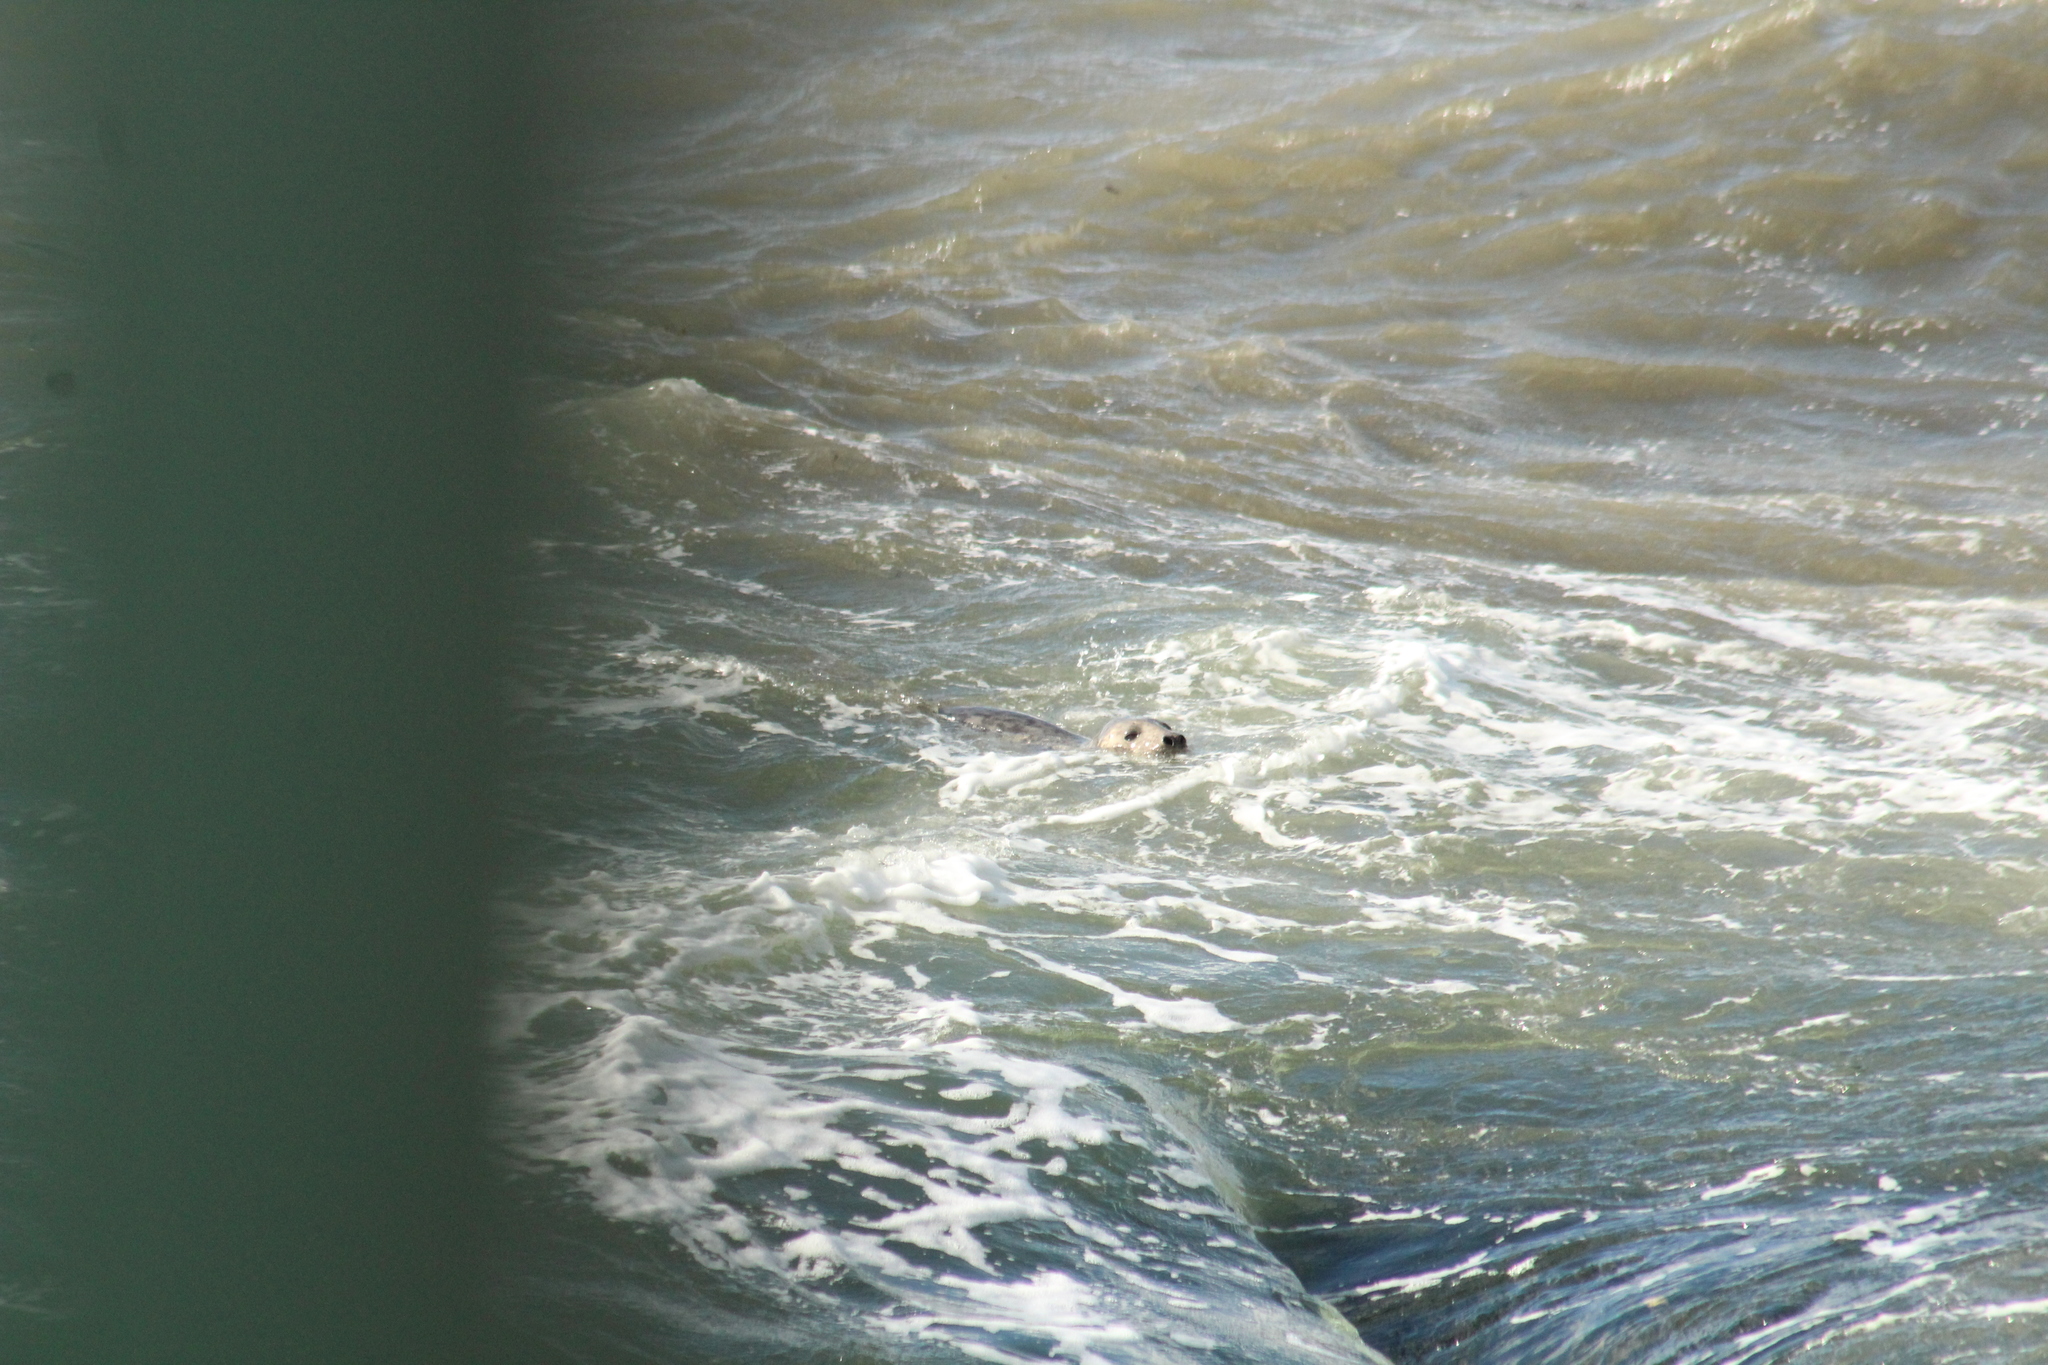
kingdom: Animalia
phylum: Chordata
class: Mammalia
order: Carnivora
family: Phocidae
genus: Halichoerus
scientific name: Halichoerus grypus
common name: Grey seal
